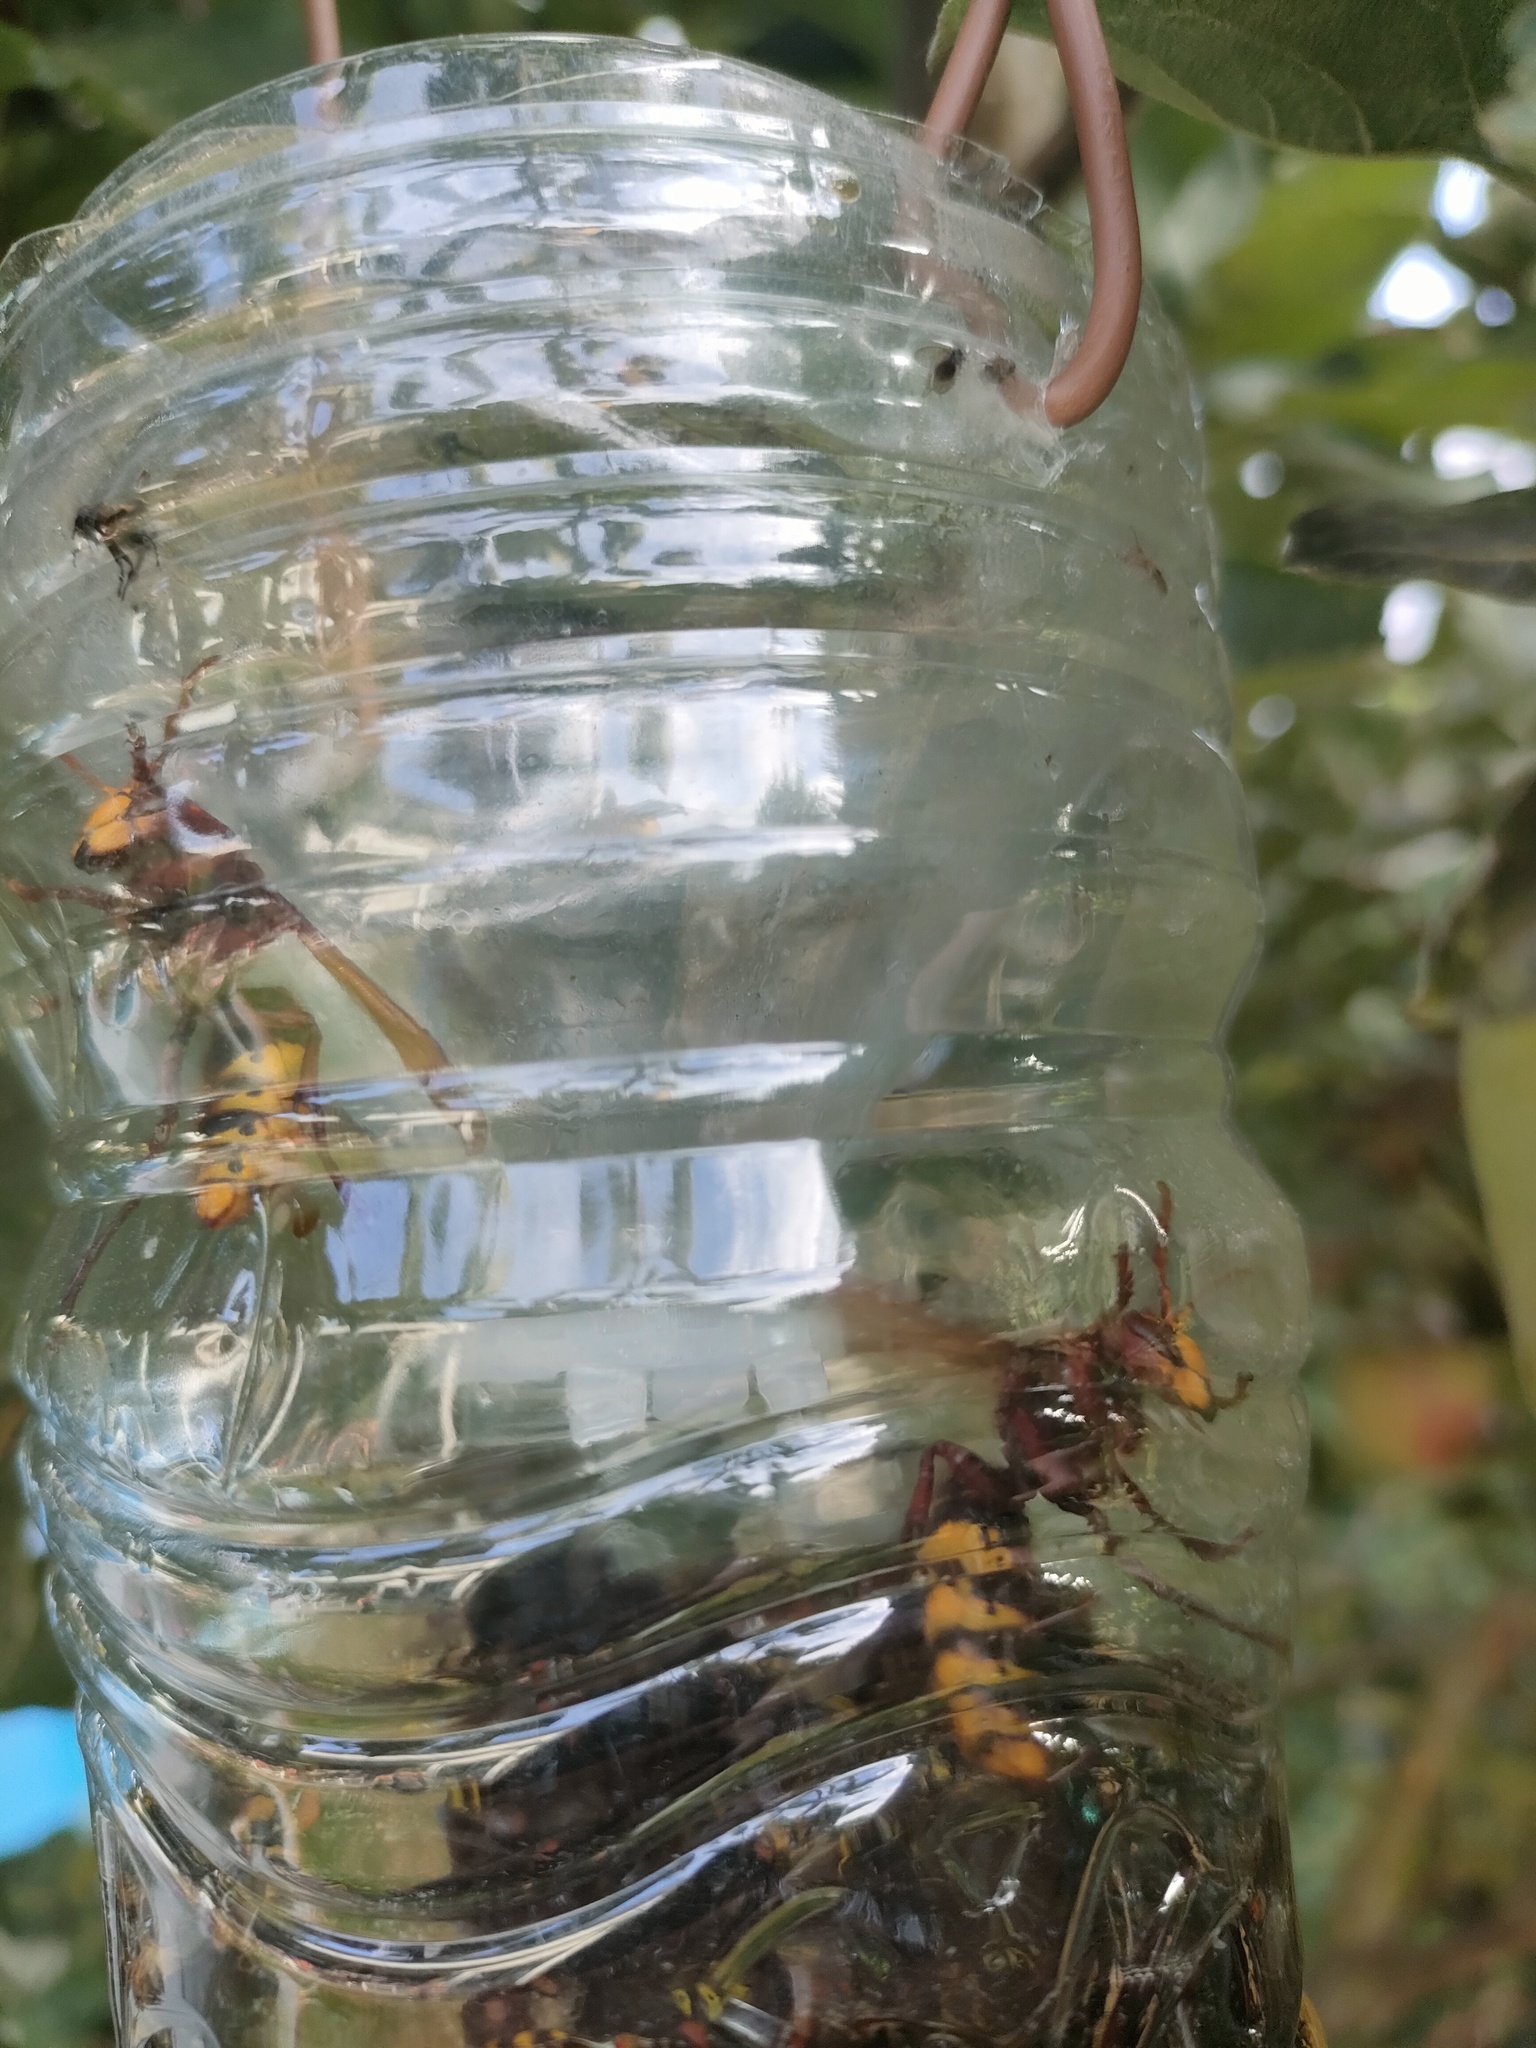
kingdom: Animalia
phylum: Arthropoda
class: Insecta
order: Hymenoptera
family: Vespidae
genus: Vespa
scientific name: Vespa crabro
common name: Hornet
